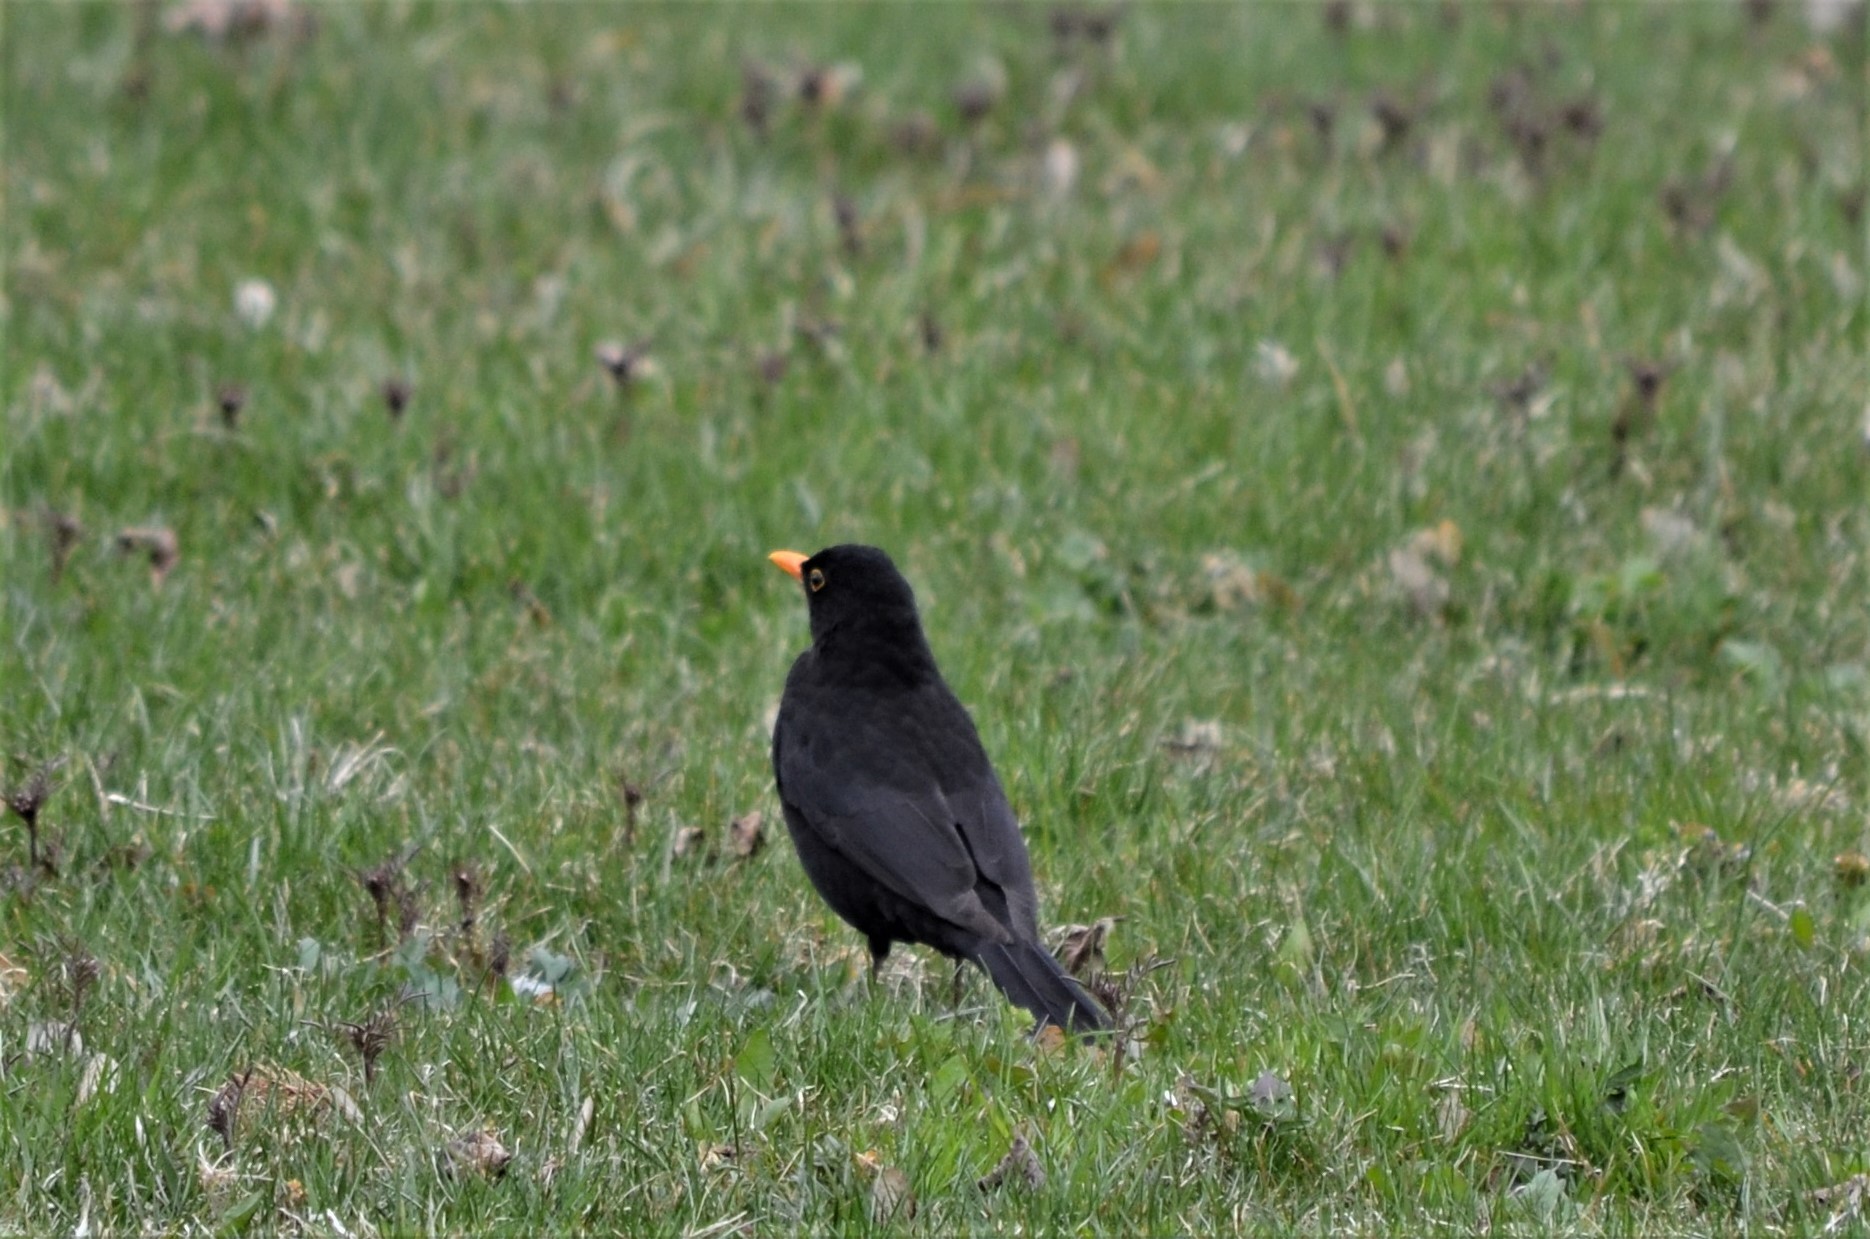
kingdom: Animalia
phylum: Chordata
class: Aves
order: Passeriformes
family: Turdidae
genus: Turdus
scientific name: Turdus merula
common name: Common blackbird
